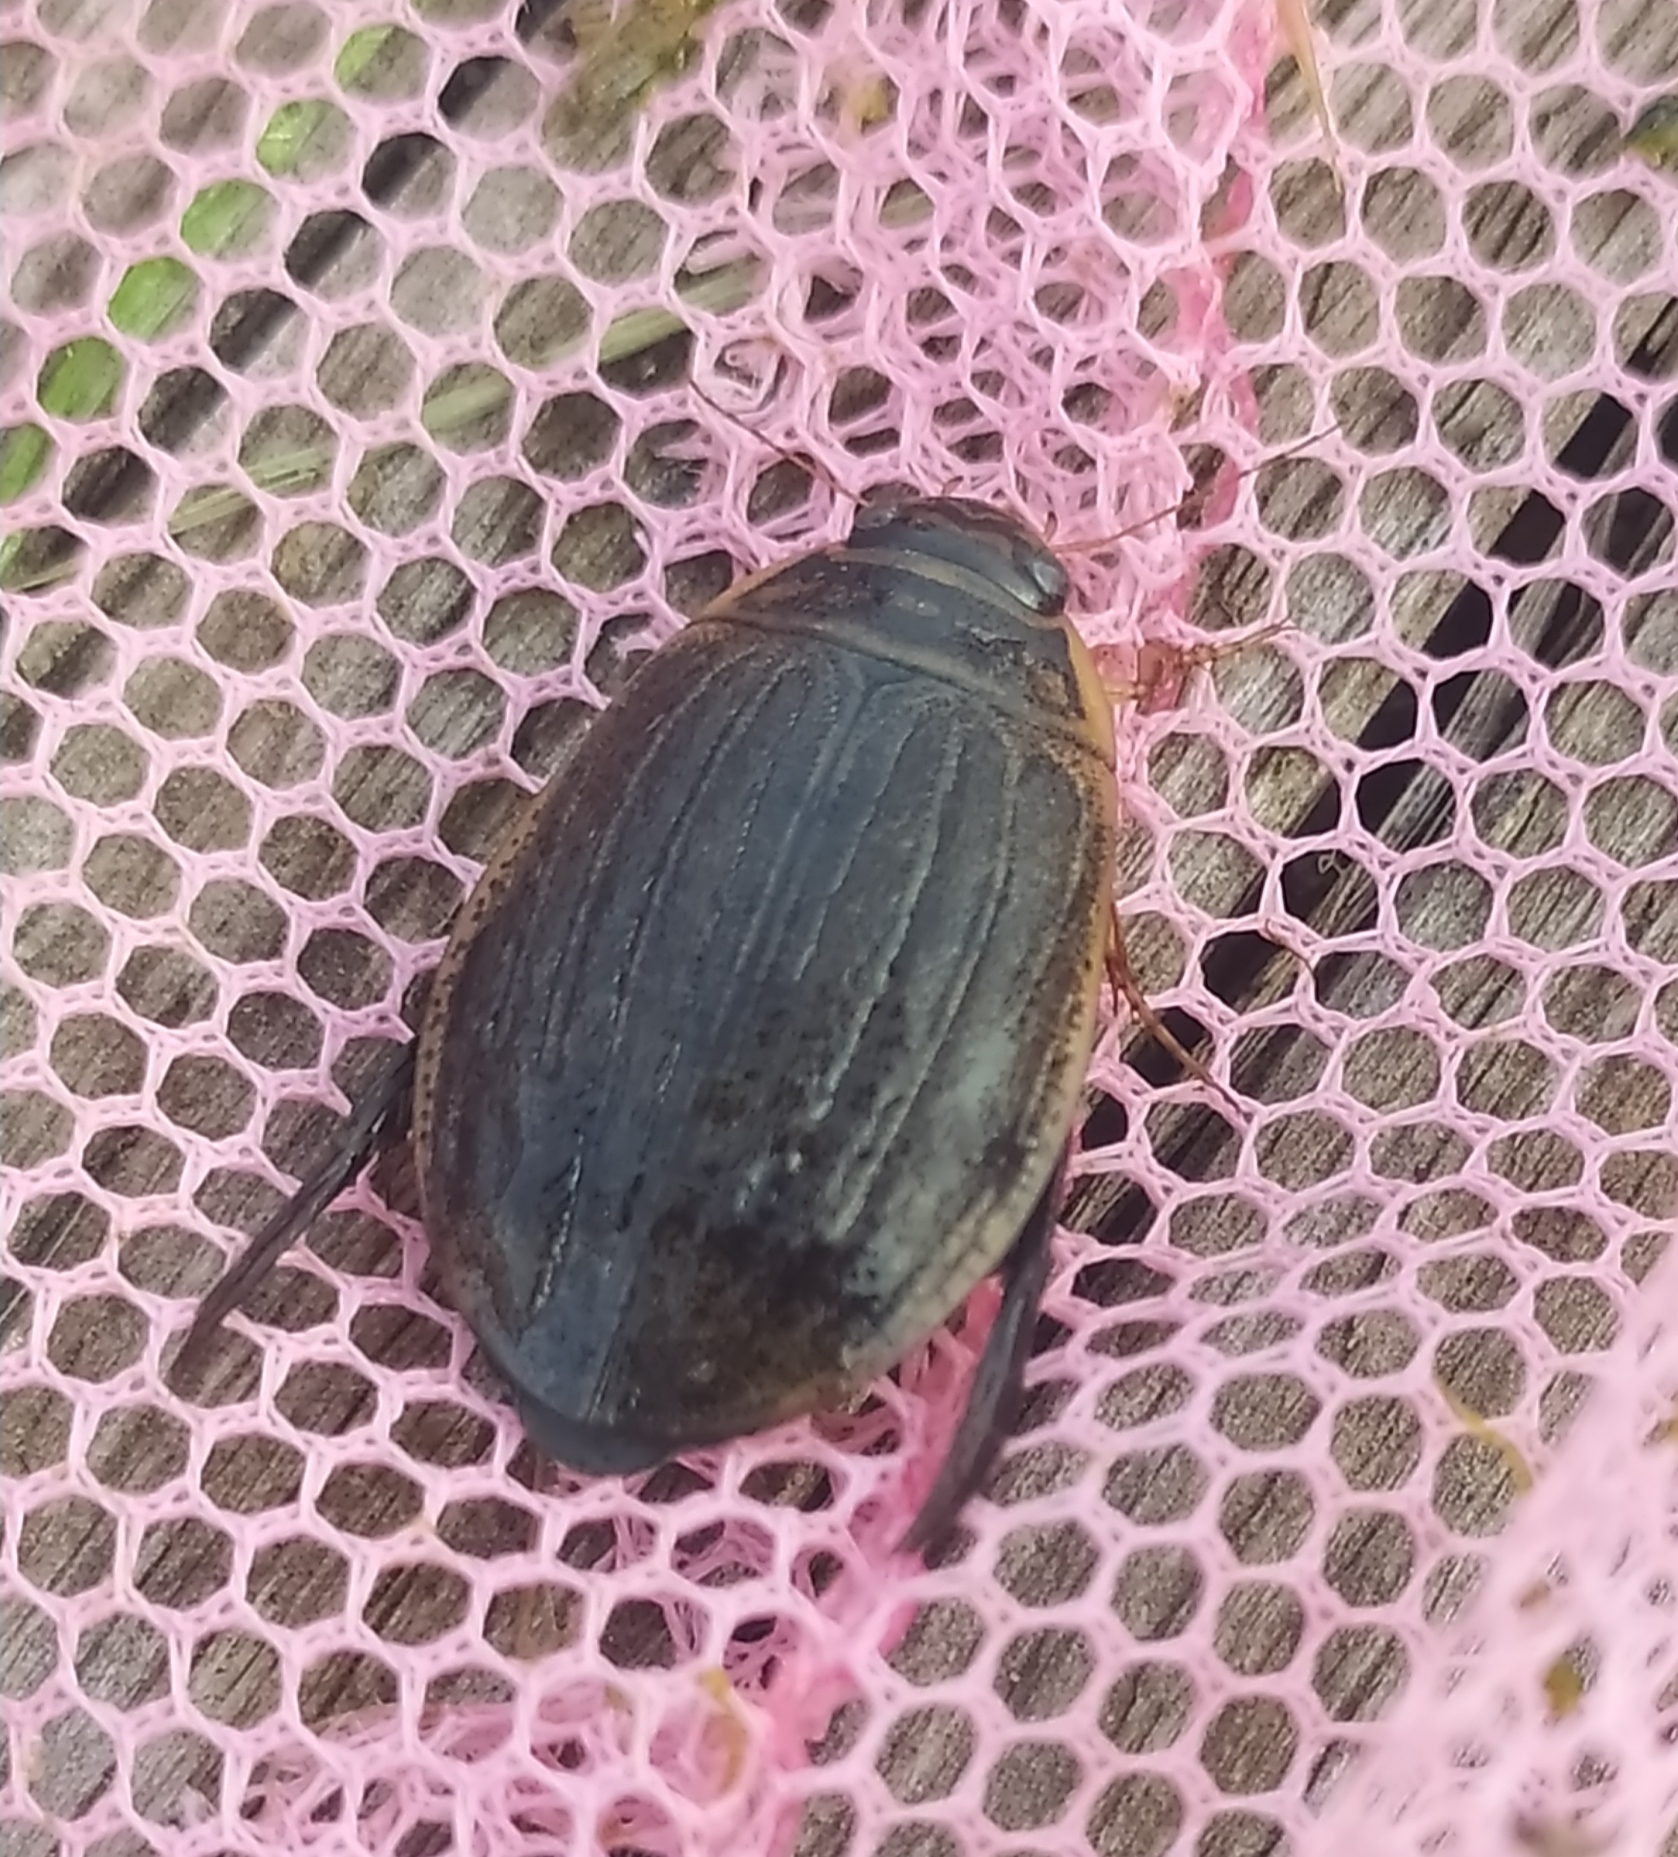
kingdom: Animalia
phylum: Arthropoda
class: Insecta
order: Coleoptera
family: Dytiscidae
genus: Acilius
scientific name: Acilius sulcatus
